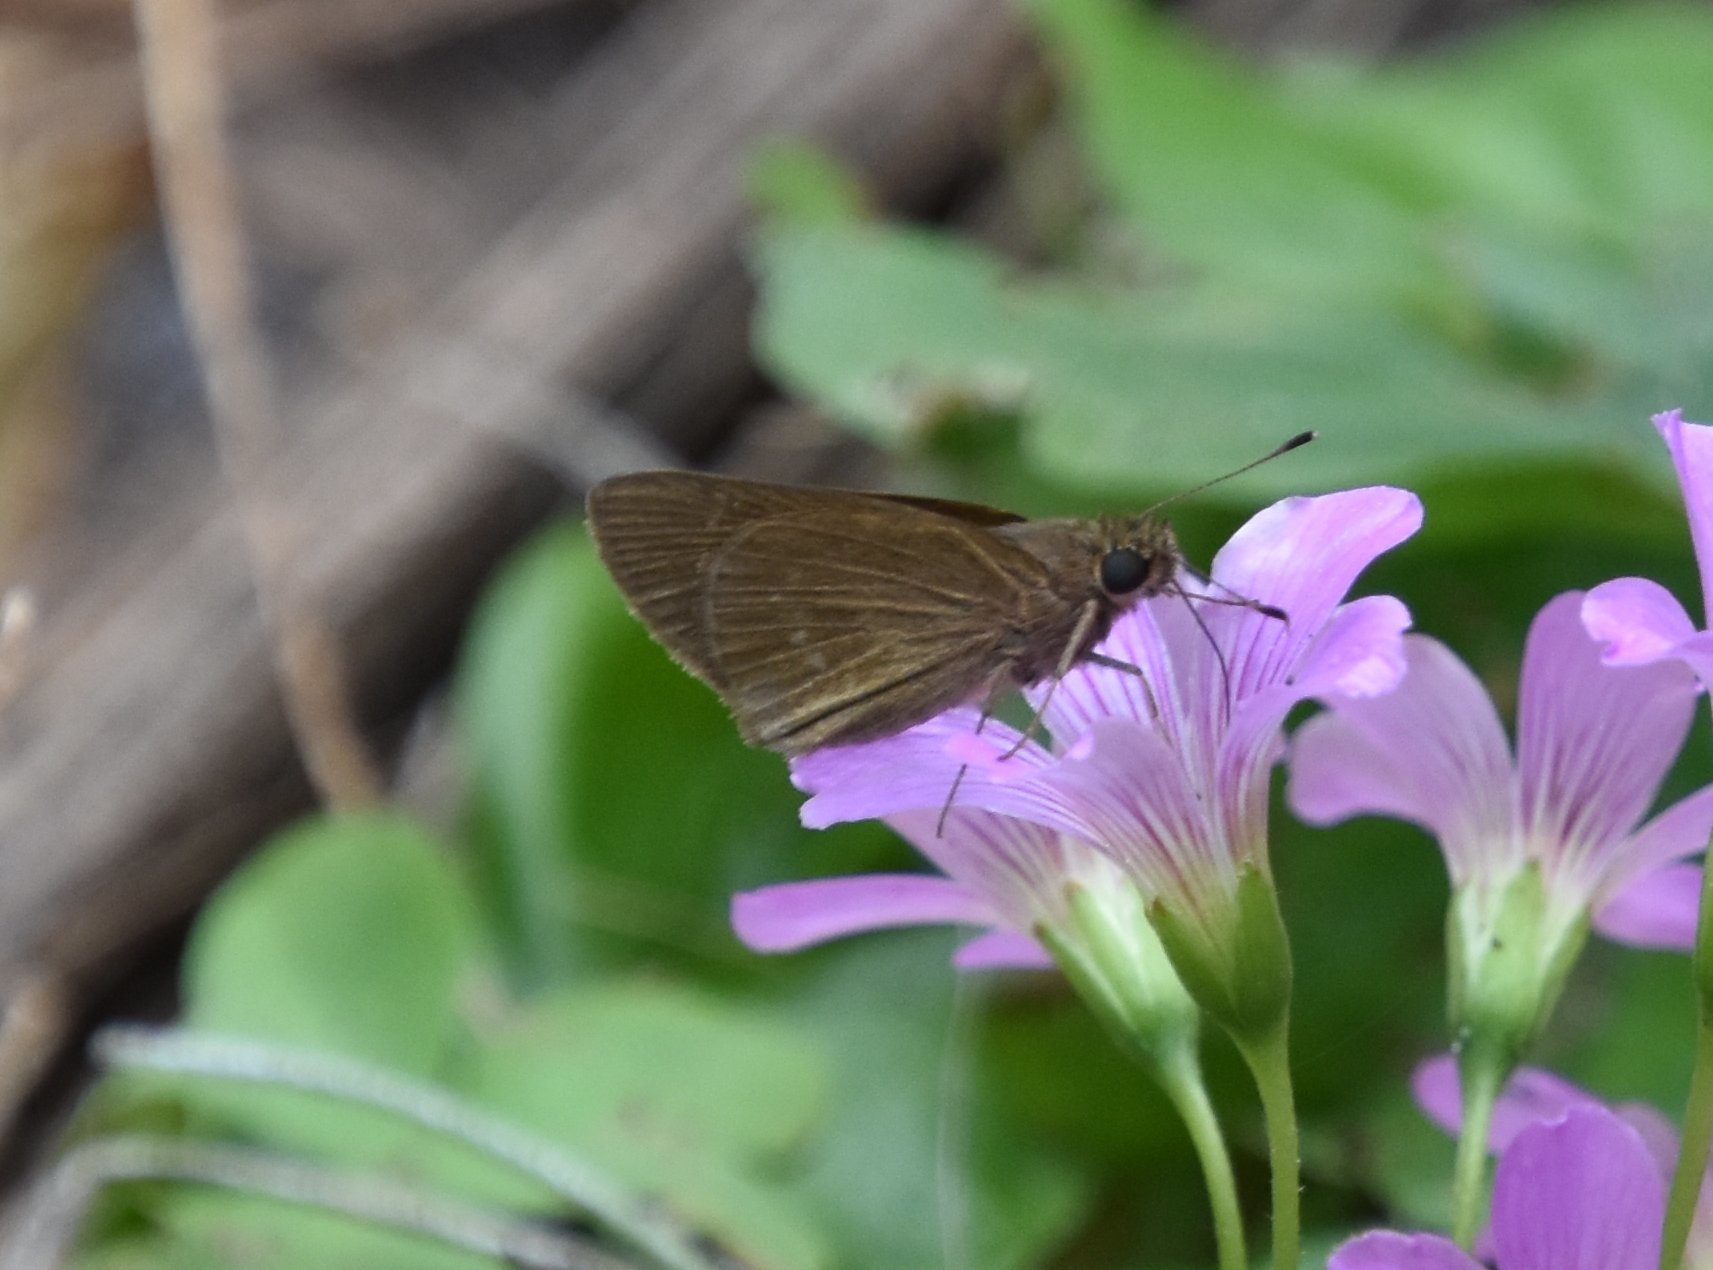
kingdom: Animalia
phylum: Arthropoda
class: Insecta
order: Lepidoptera
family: Hesperiidae
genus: Cymaenes
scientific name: Cymaenes tripunctus
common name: Dingy dotted skipper
